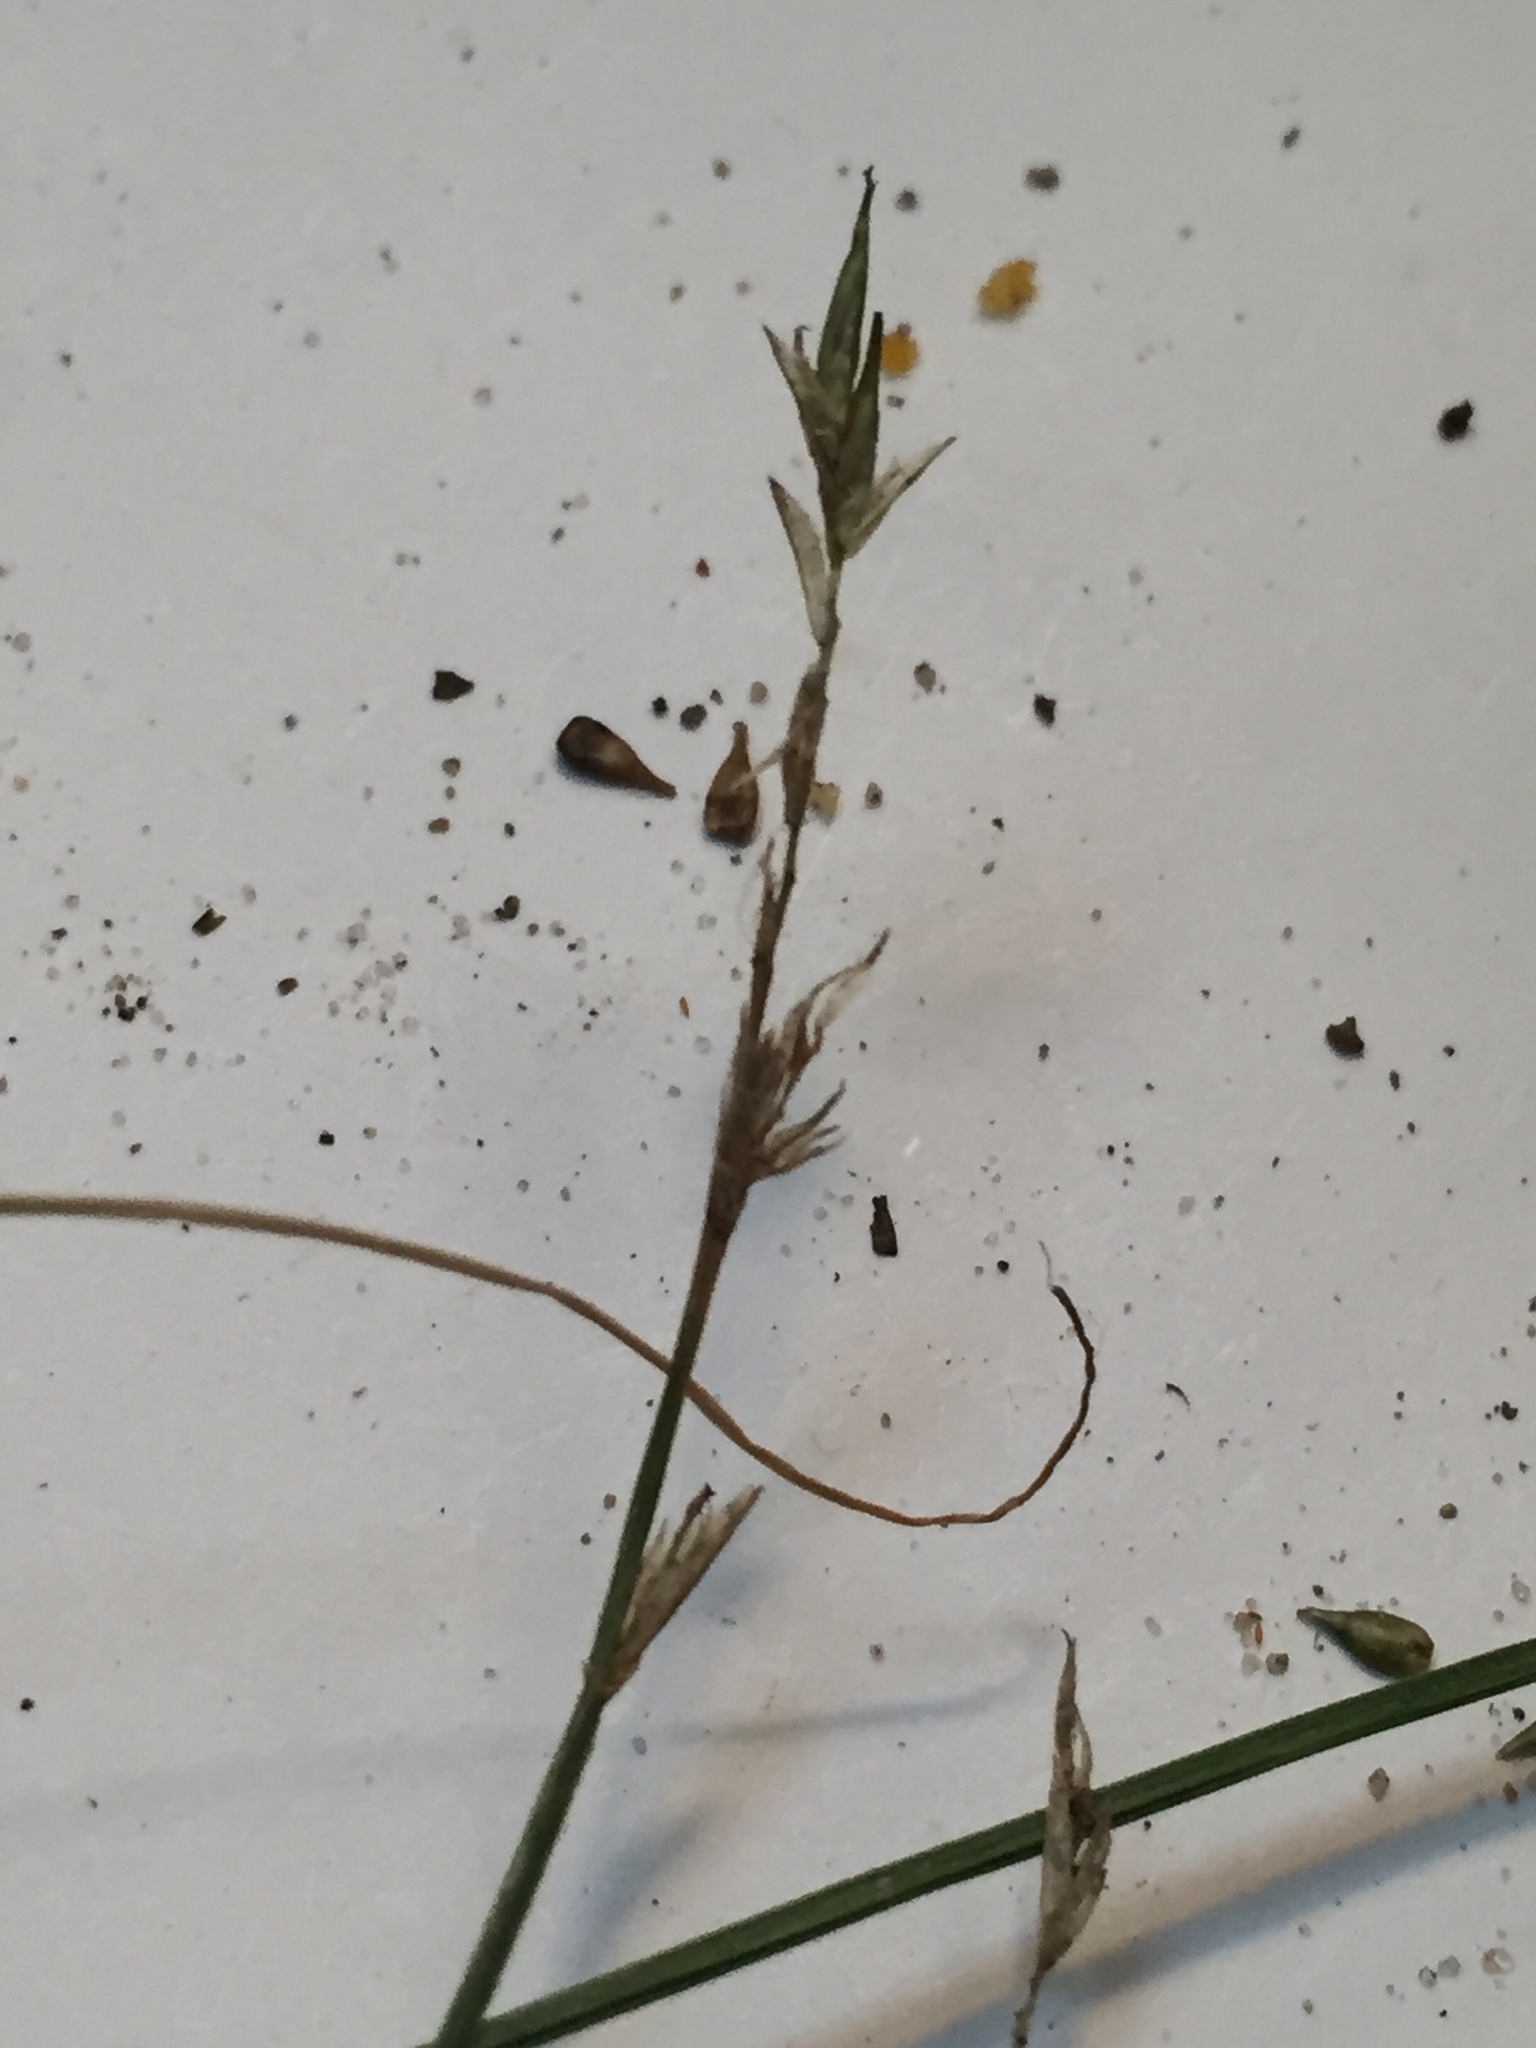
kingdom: Plantae
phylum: Tracheophyta
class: Liliopsida
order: Poales
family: Cyperaceae
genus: Carex
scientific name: Carex bromoides
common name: Brome hummock sedge
